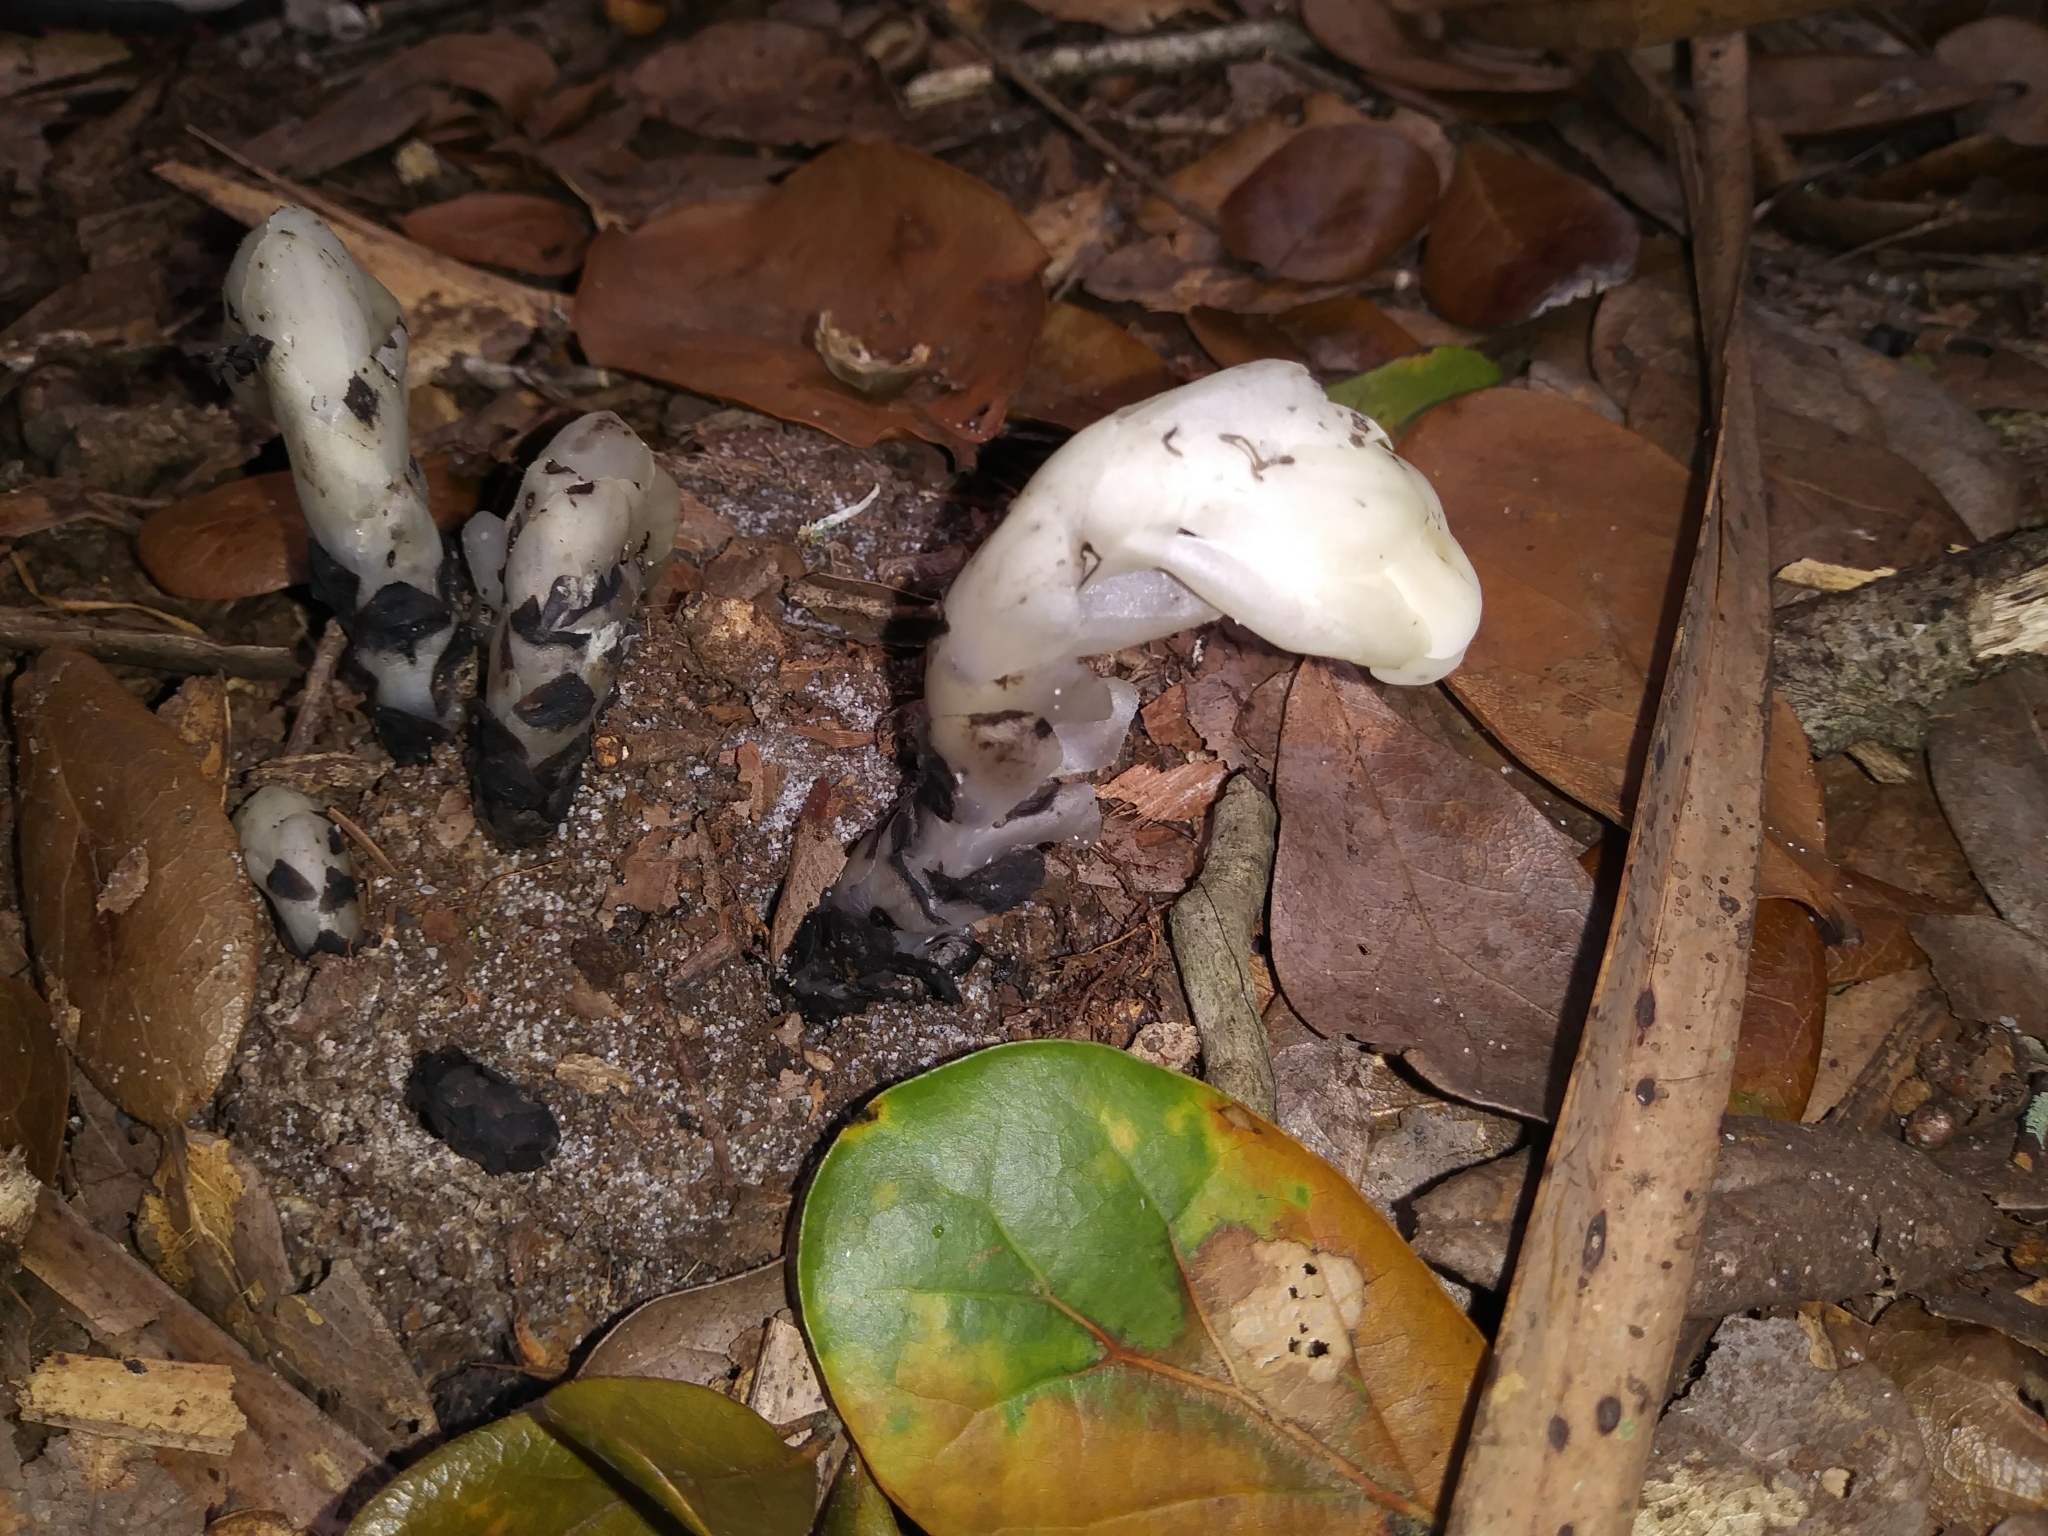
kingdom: Plantae
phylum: Tracheophyta
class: Magnoliopsida
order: Ericales
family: Ericaceae
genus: Monotropa
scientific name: Monotropa uniflora
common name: Convulsion root
